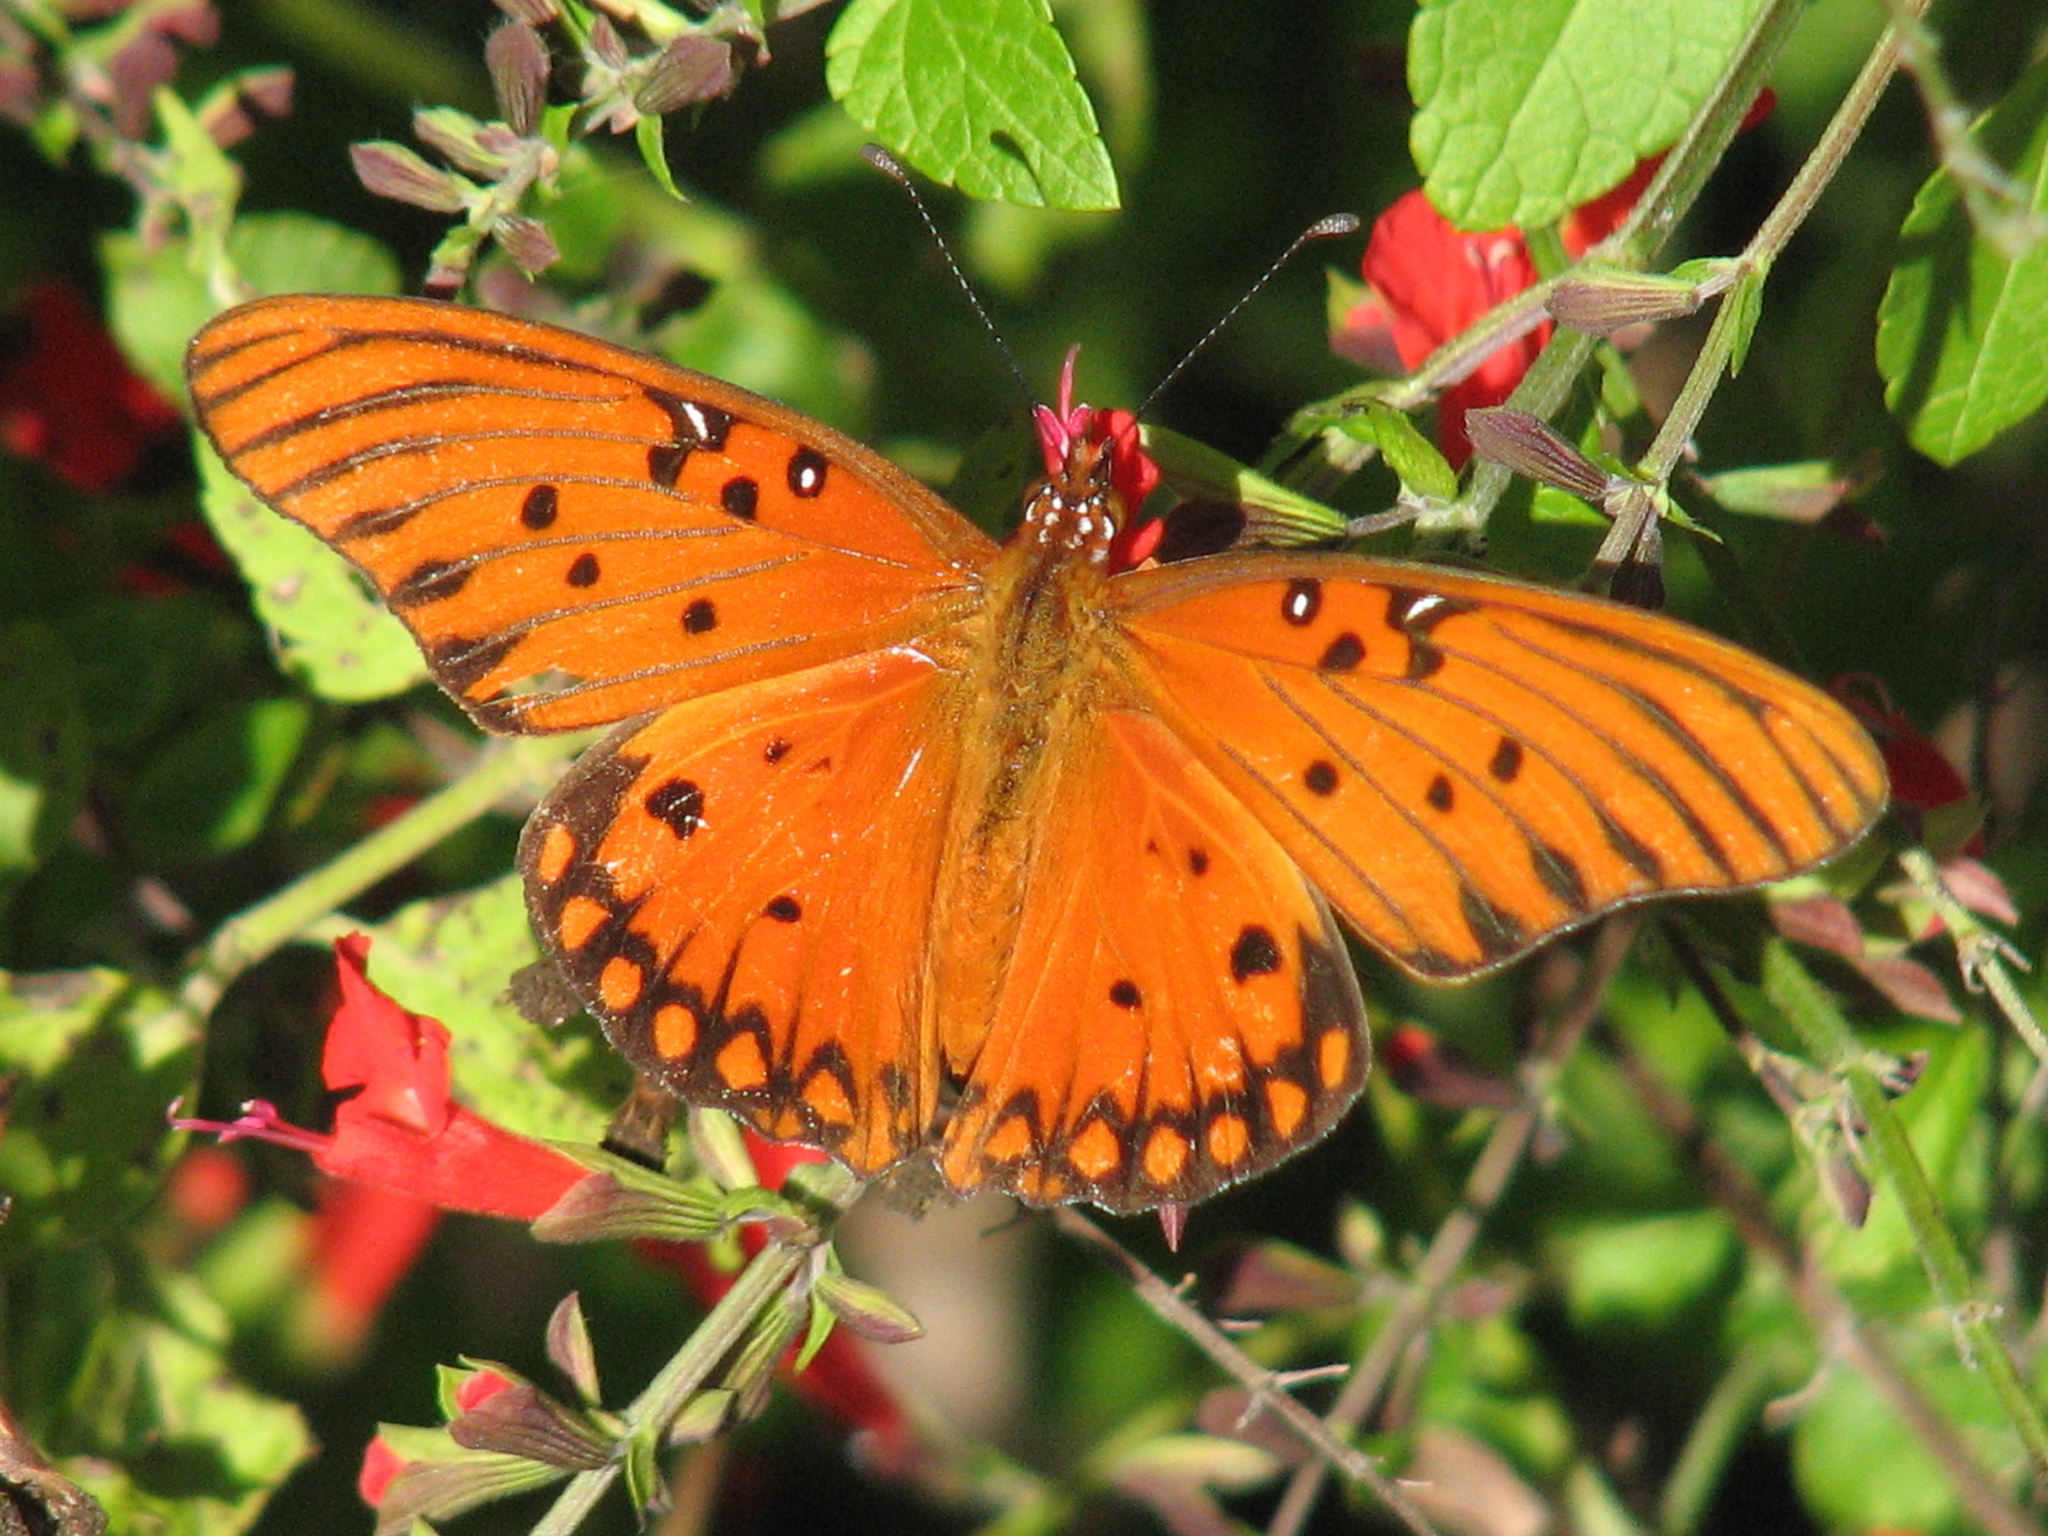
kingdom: Animalia
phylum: Arthropoda
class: Insecta
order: Lepidoptera
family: Nymphalidae
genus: Dione
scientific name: Dione vanillae
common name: Gulf fritillary
